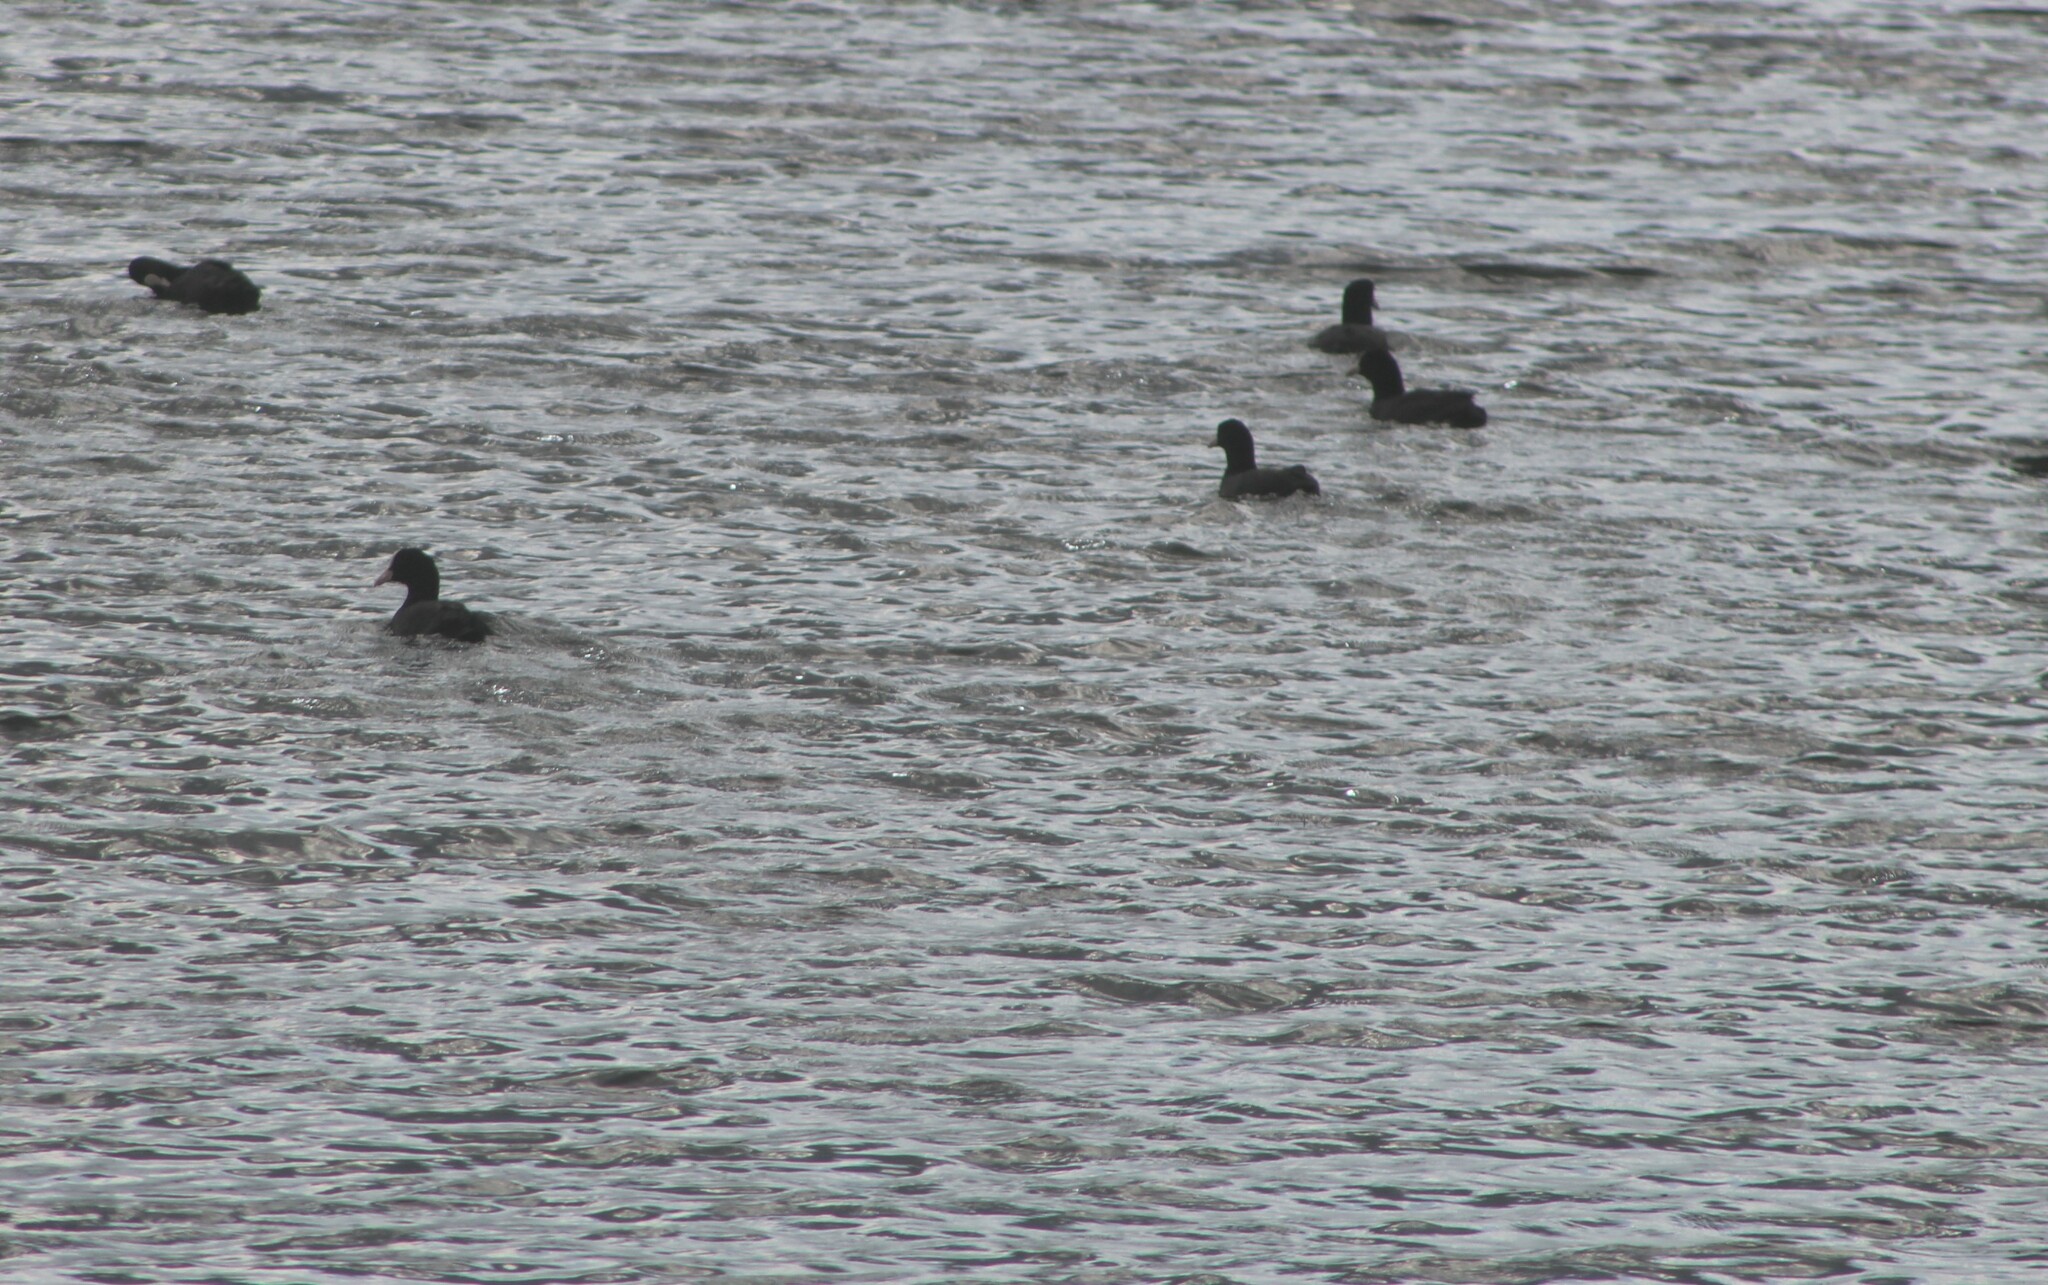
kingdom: Animalia
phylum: Chordata
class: Aves
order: Gruiformes
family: Rallidae
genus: Fulica
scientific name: Fulica atra
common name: Eurasian coot
